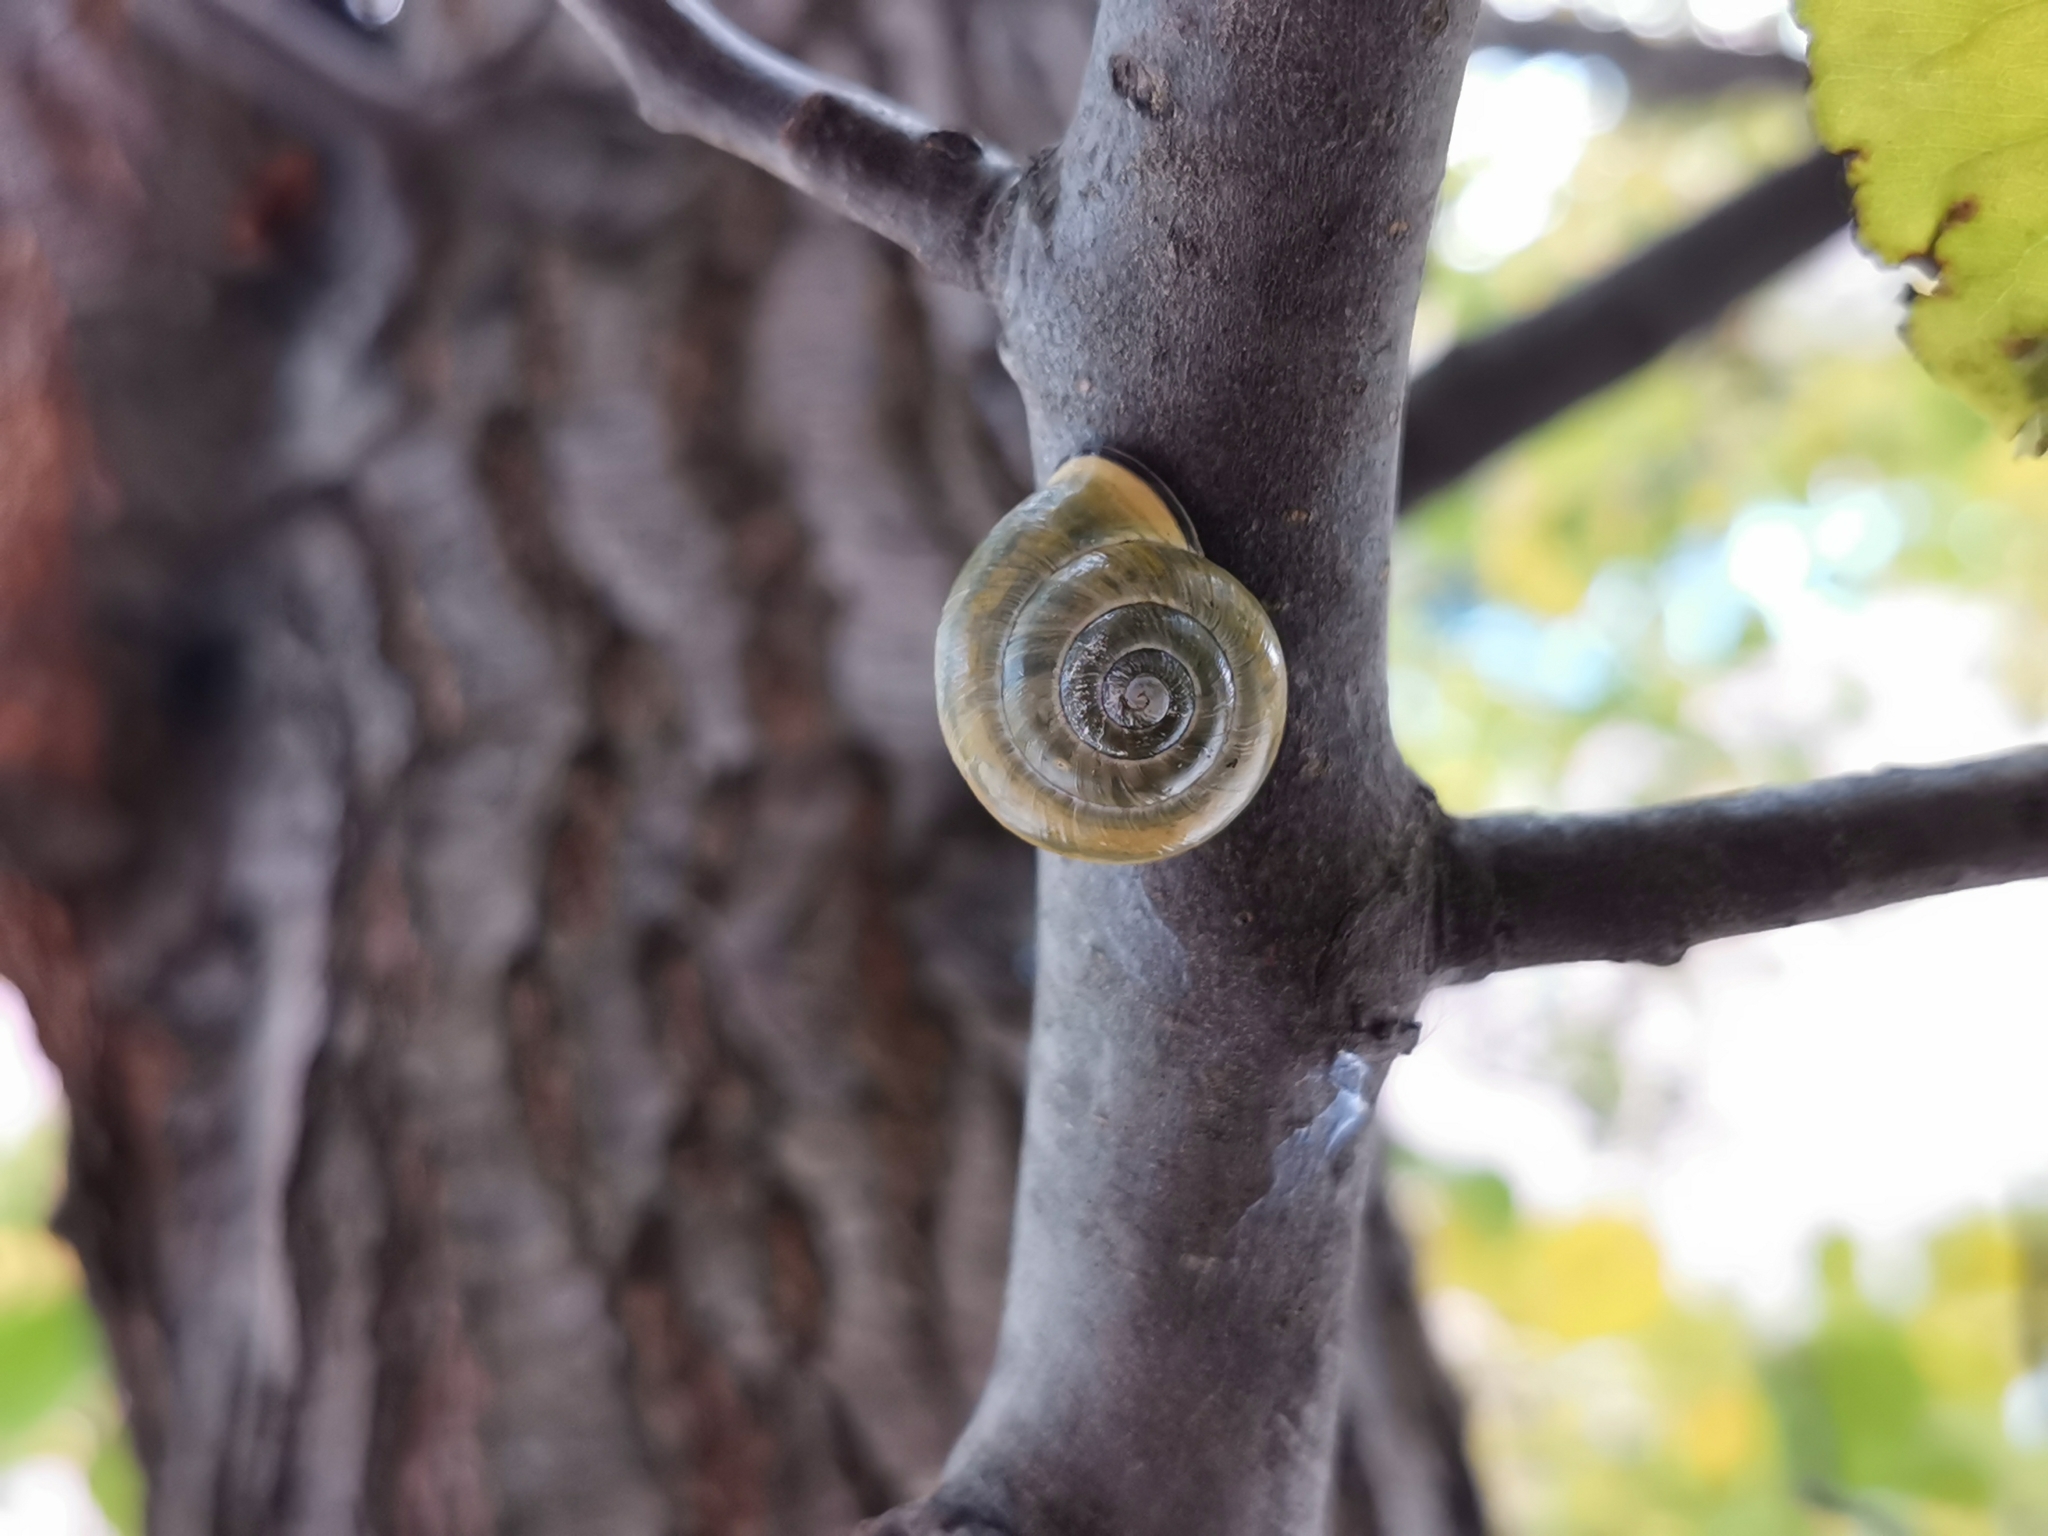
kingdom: Animalia
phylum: Mollusca
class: Gastropoda
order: Stylommatophora
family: Helicidae
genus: Cepaea
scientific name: Cepaea nemoralis
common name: Grovesnail
